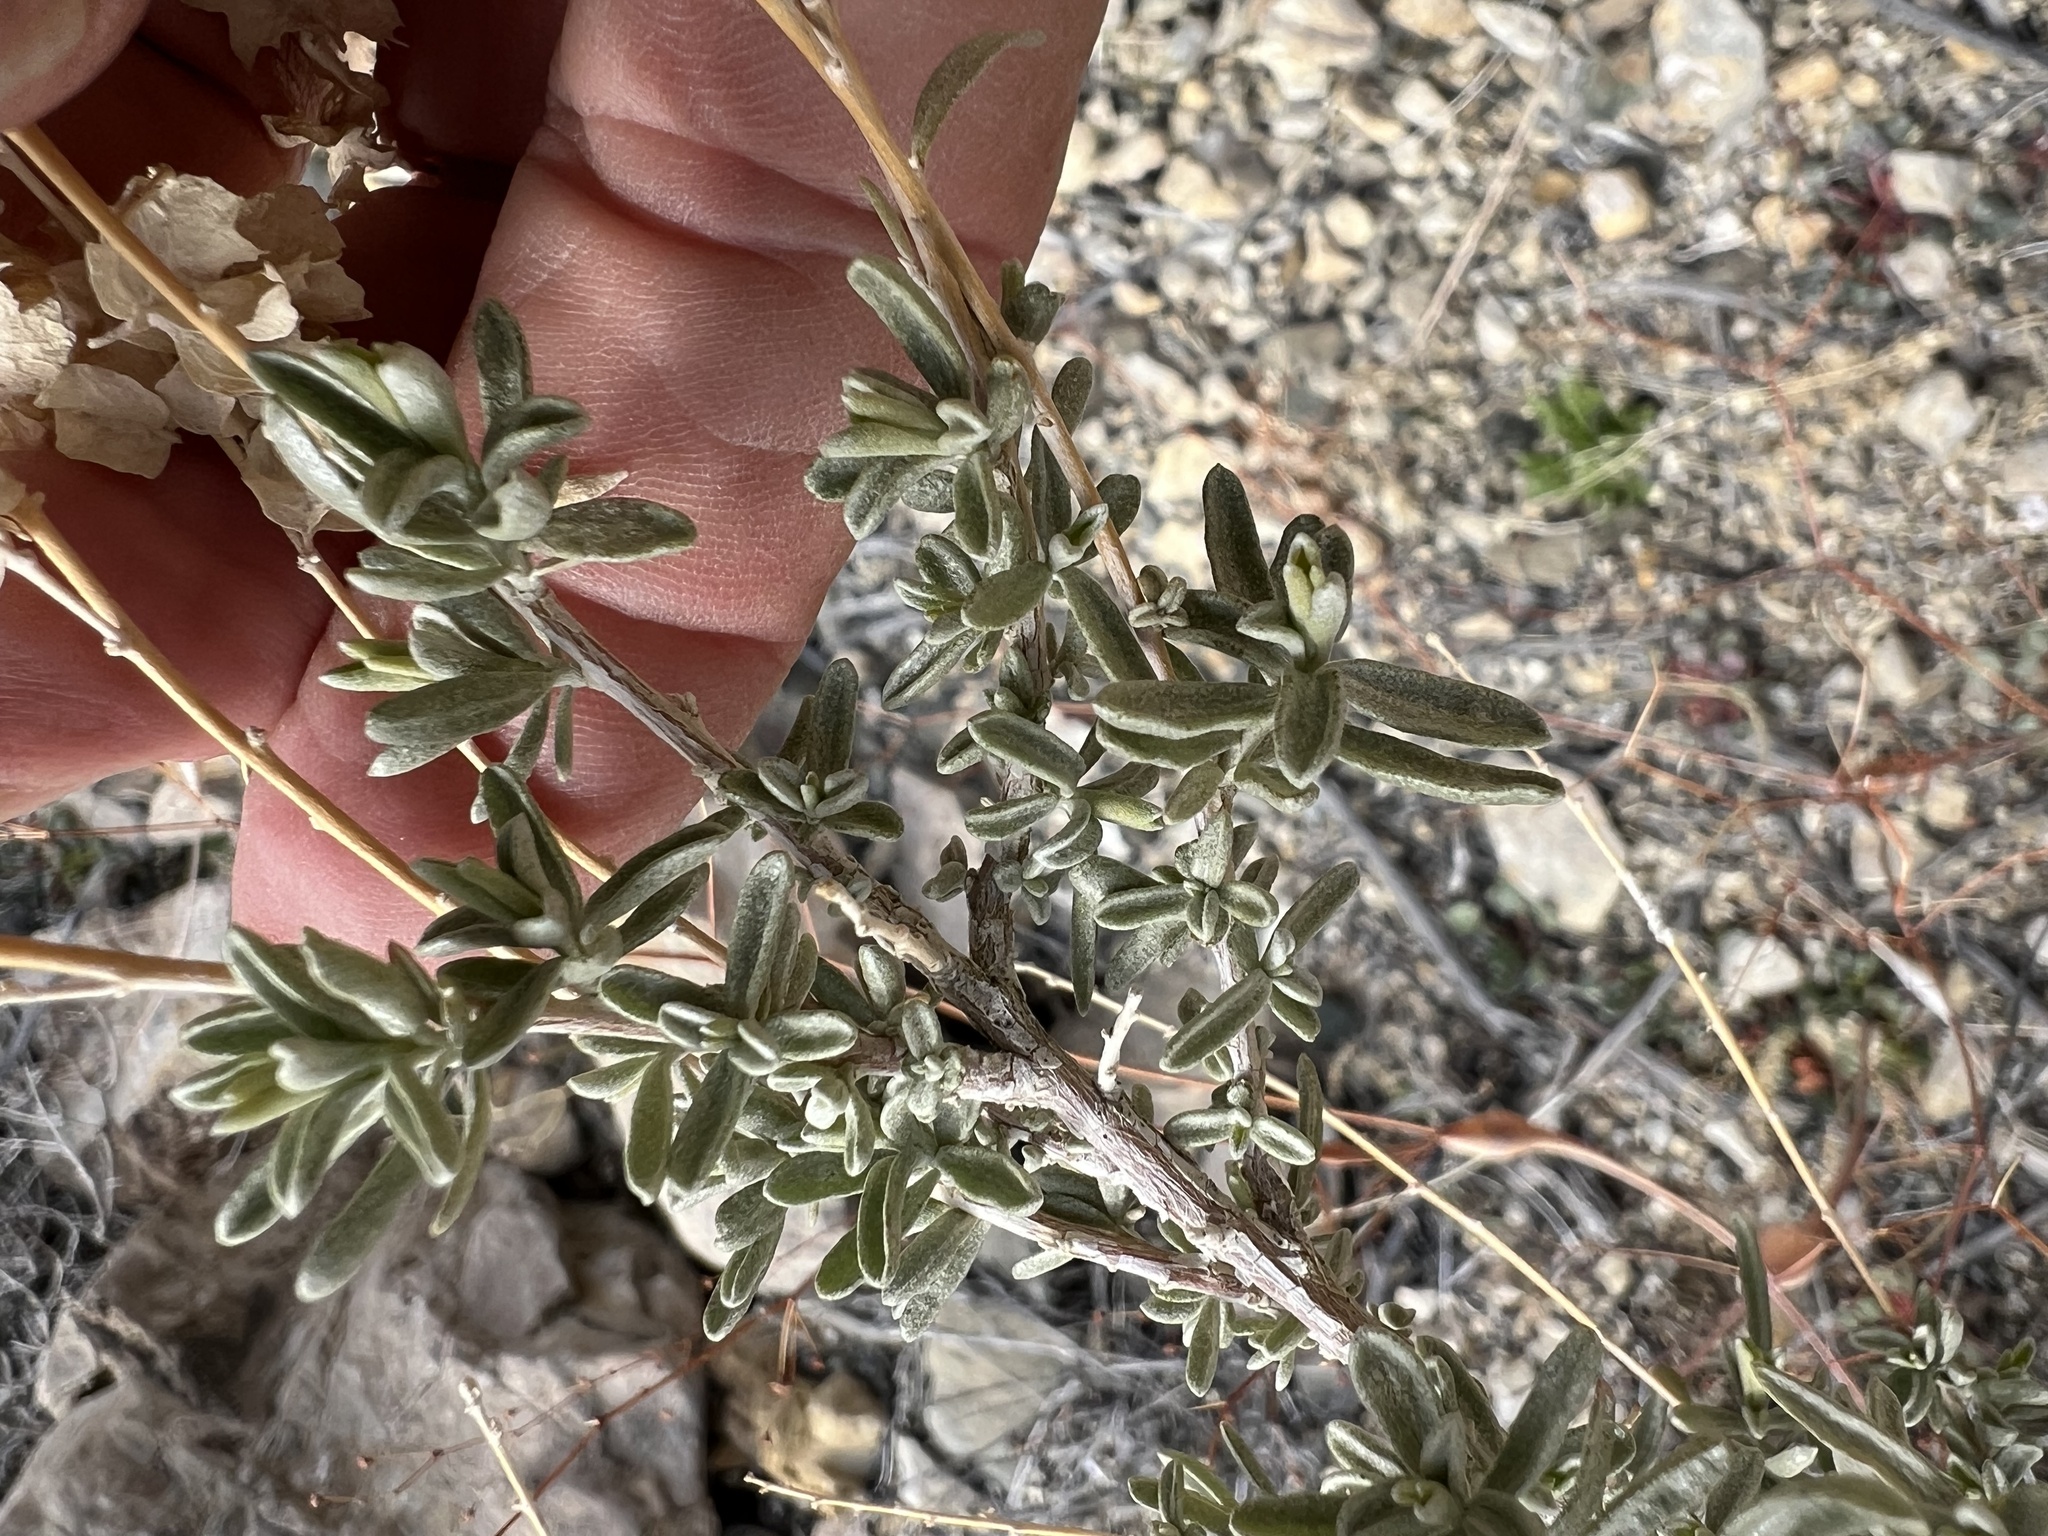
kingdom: Plantae
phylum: Tracheophyta
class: Magnoliopsida
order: Caryophyllales
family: Amaranthaceae
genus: Atriplex
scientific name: Atriplex canescens
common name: Four-wing saltbush
